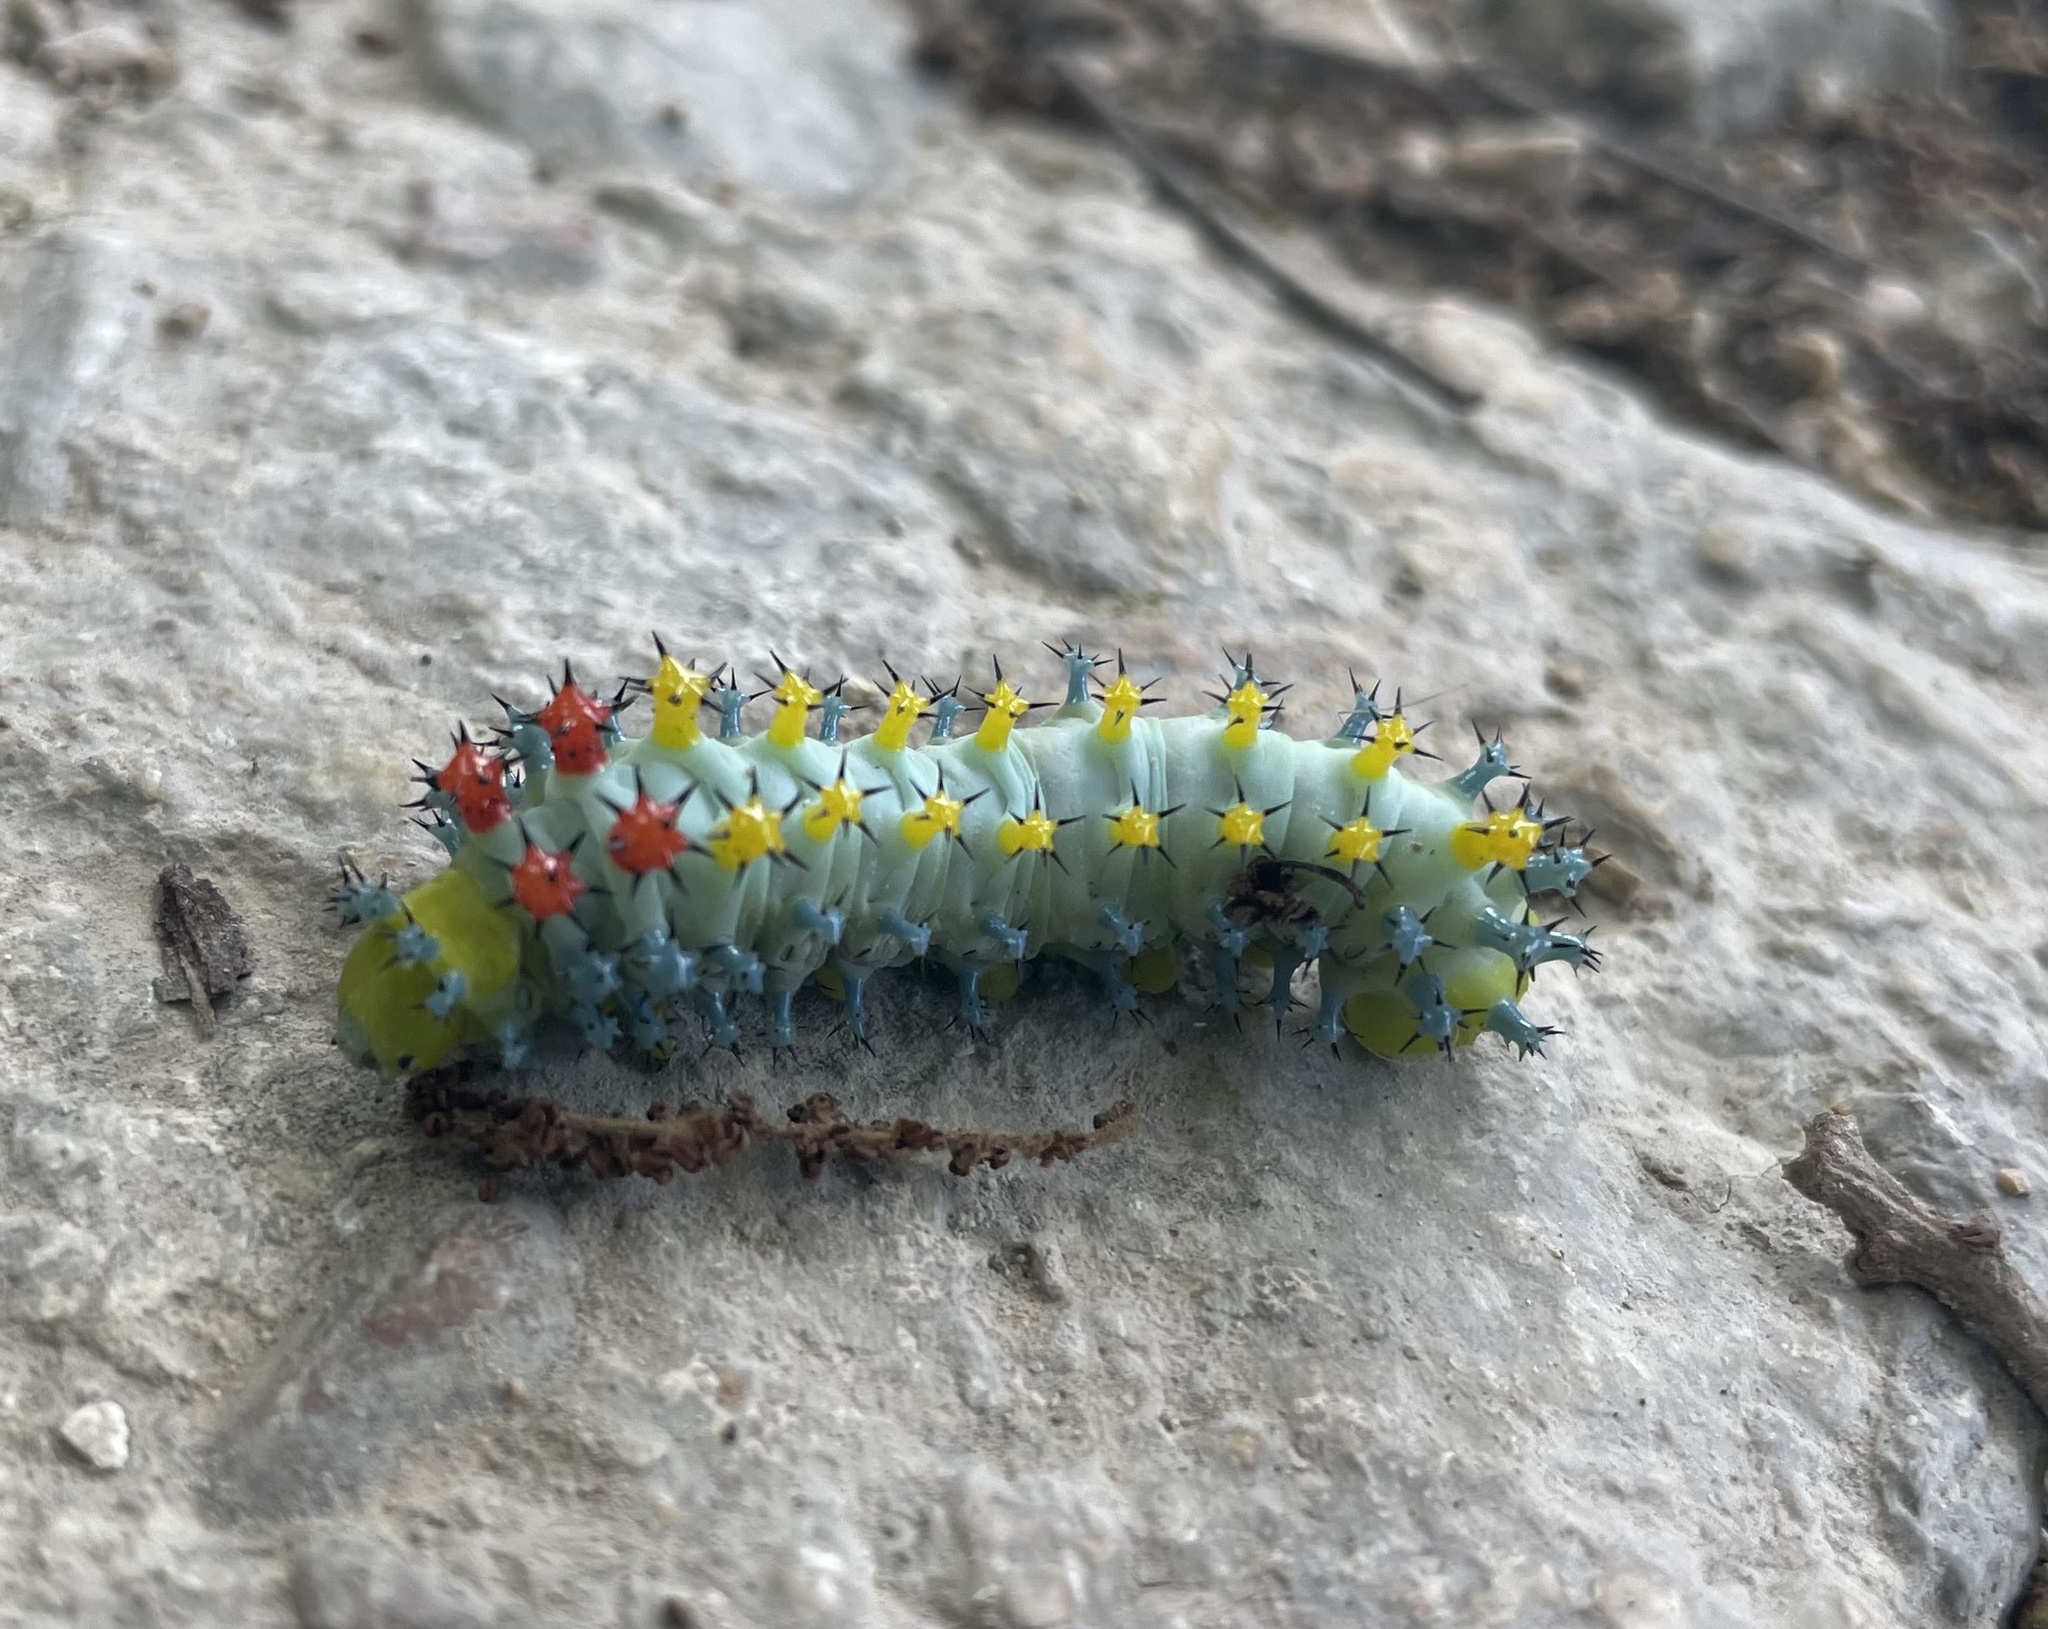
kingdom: Animalia
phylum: Arthropoda
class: Insecta
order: Lepidoptera
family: Saturniidae
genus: Hyalophora
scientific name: Hyalophora cecropia
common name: Cecropia silkmoth
